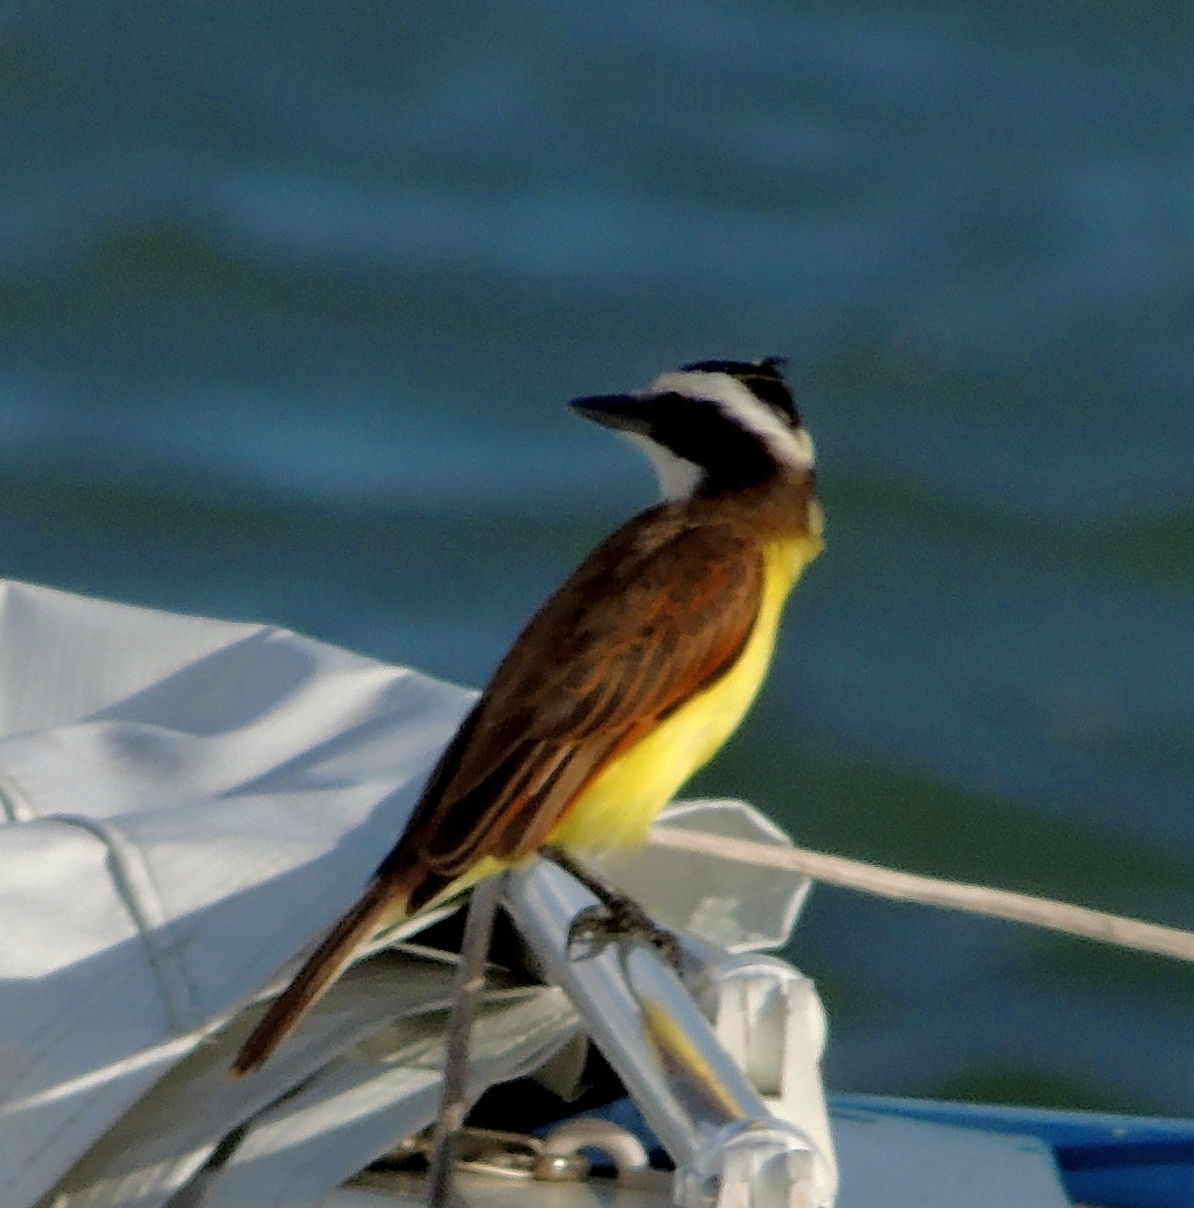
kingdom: Animalia
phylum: Chordata
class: Aves
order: Passeriformes
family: Tyrannidae
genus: Pitangus
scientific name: Pitangus sulphuratus
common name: Great kiskadee
